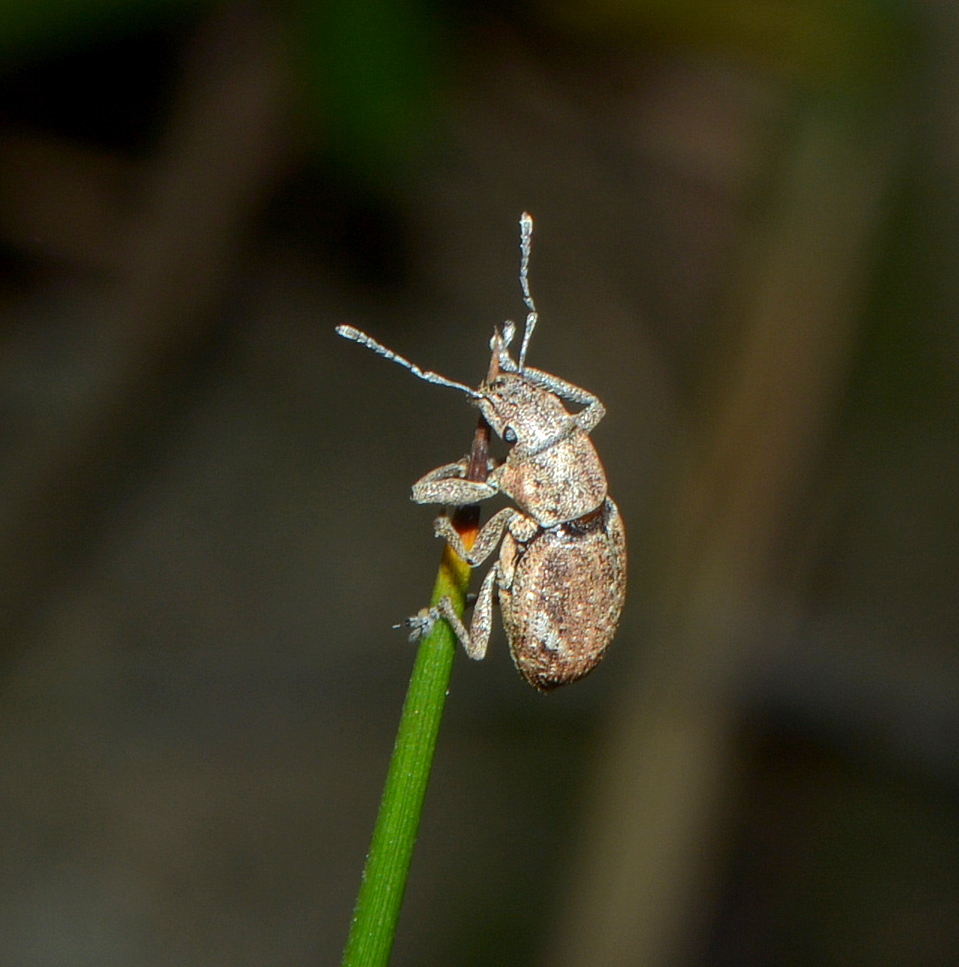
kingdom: Animalia
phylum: Arthropoda
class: Insecta
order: Coleoptera
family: Curculionidae
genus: Naupactus
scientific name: Naupactus cervinus
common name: Fuller rose beetle
